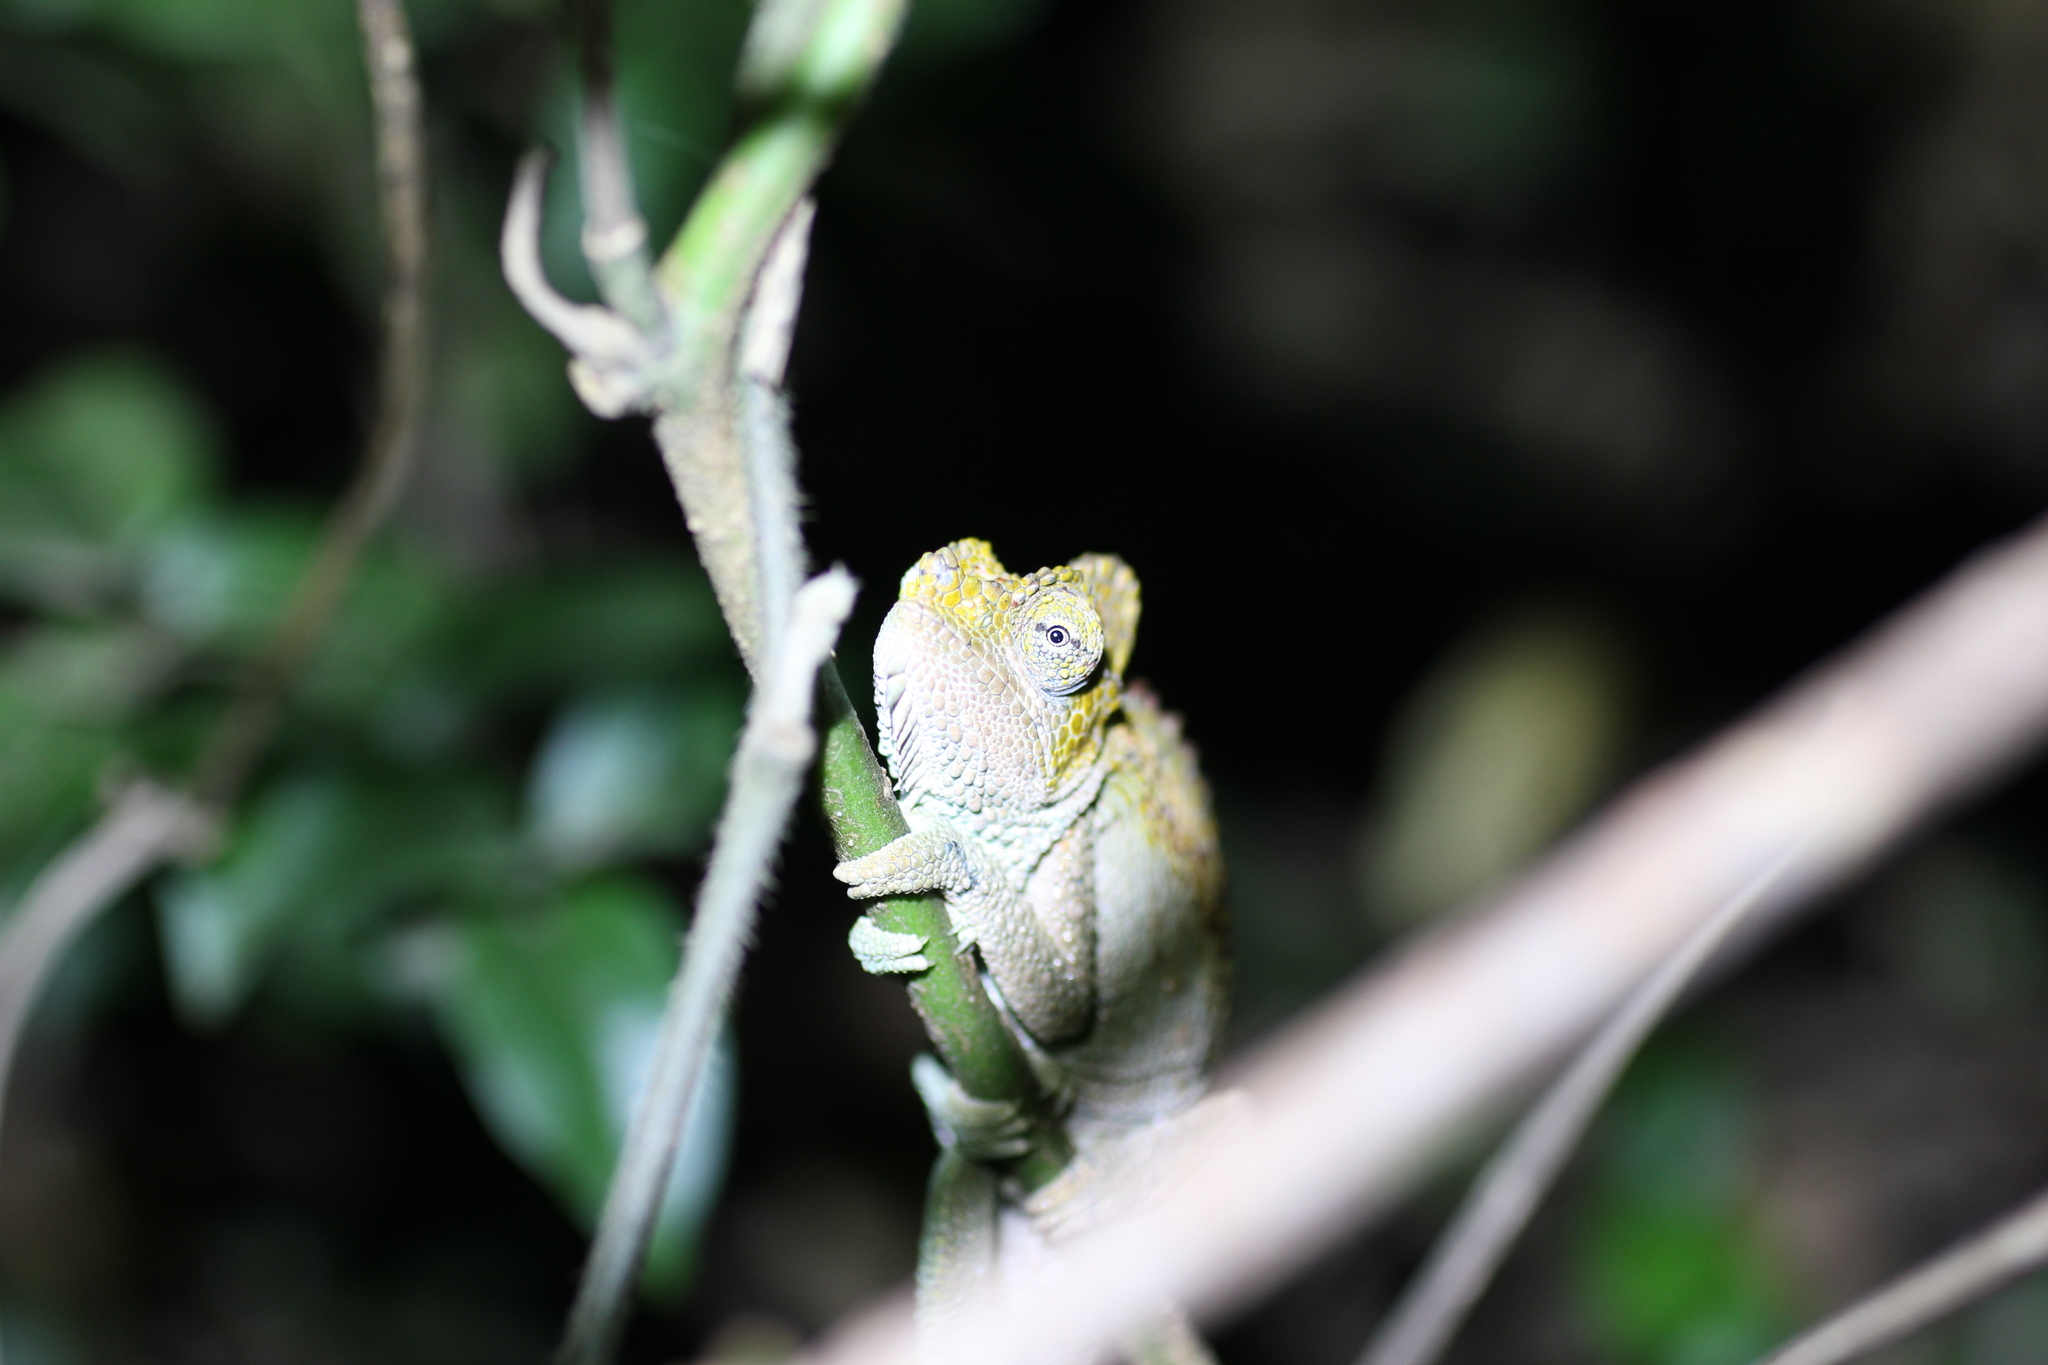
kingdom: Animalia
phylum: Chordata
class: Squamata
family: Chamaeleonidae
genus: Trioceros
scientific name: Trioceros hoehnelii
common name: High-casqued chameleon
